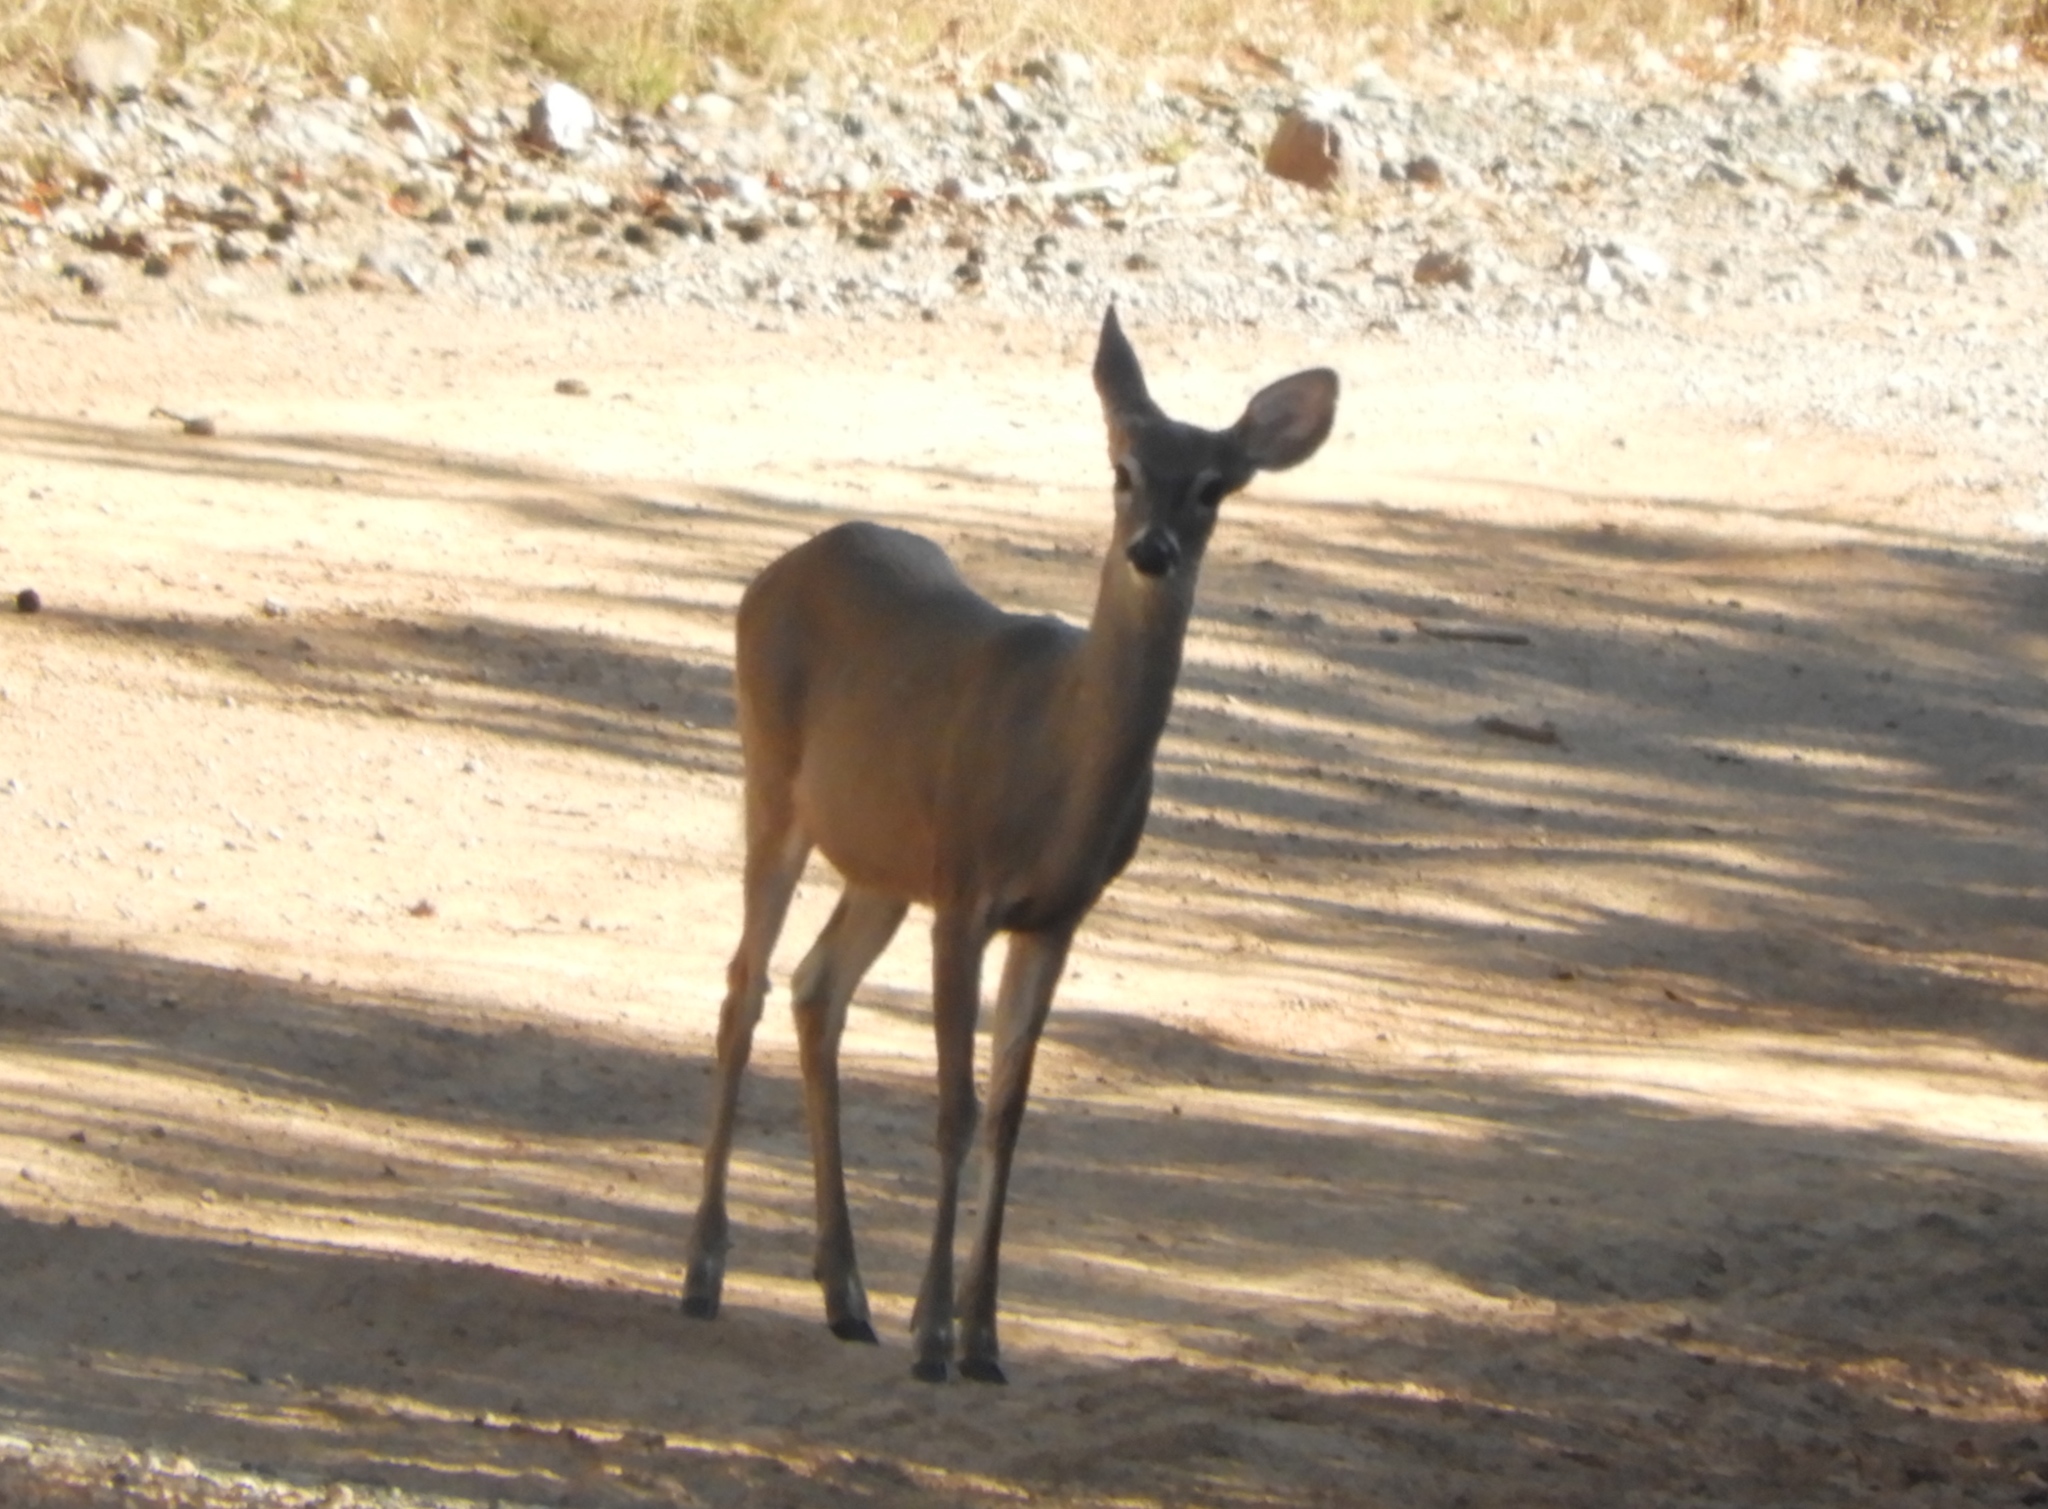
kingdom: Animalia
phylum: Chordata
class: Mammalia
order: Artiodactyla
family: Cervidae
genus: Odocoileus
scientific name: Odocoileus virginianus
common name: White-tailed deer
